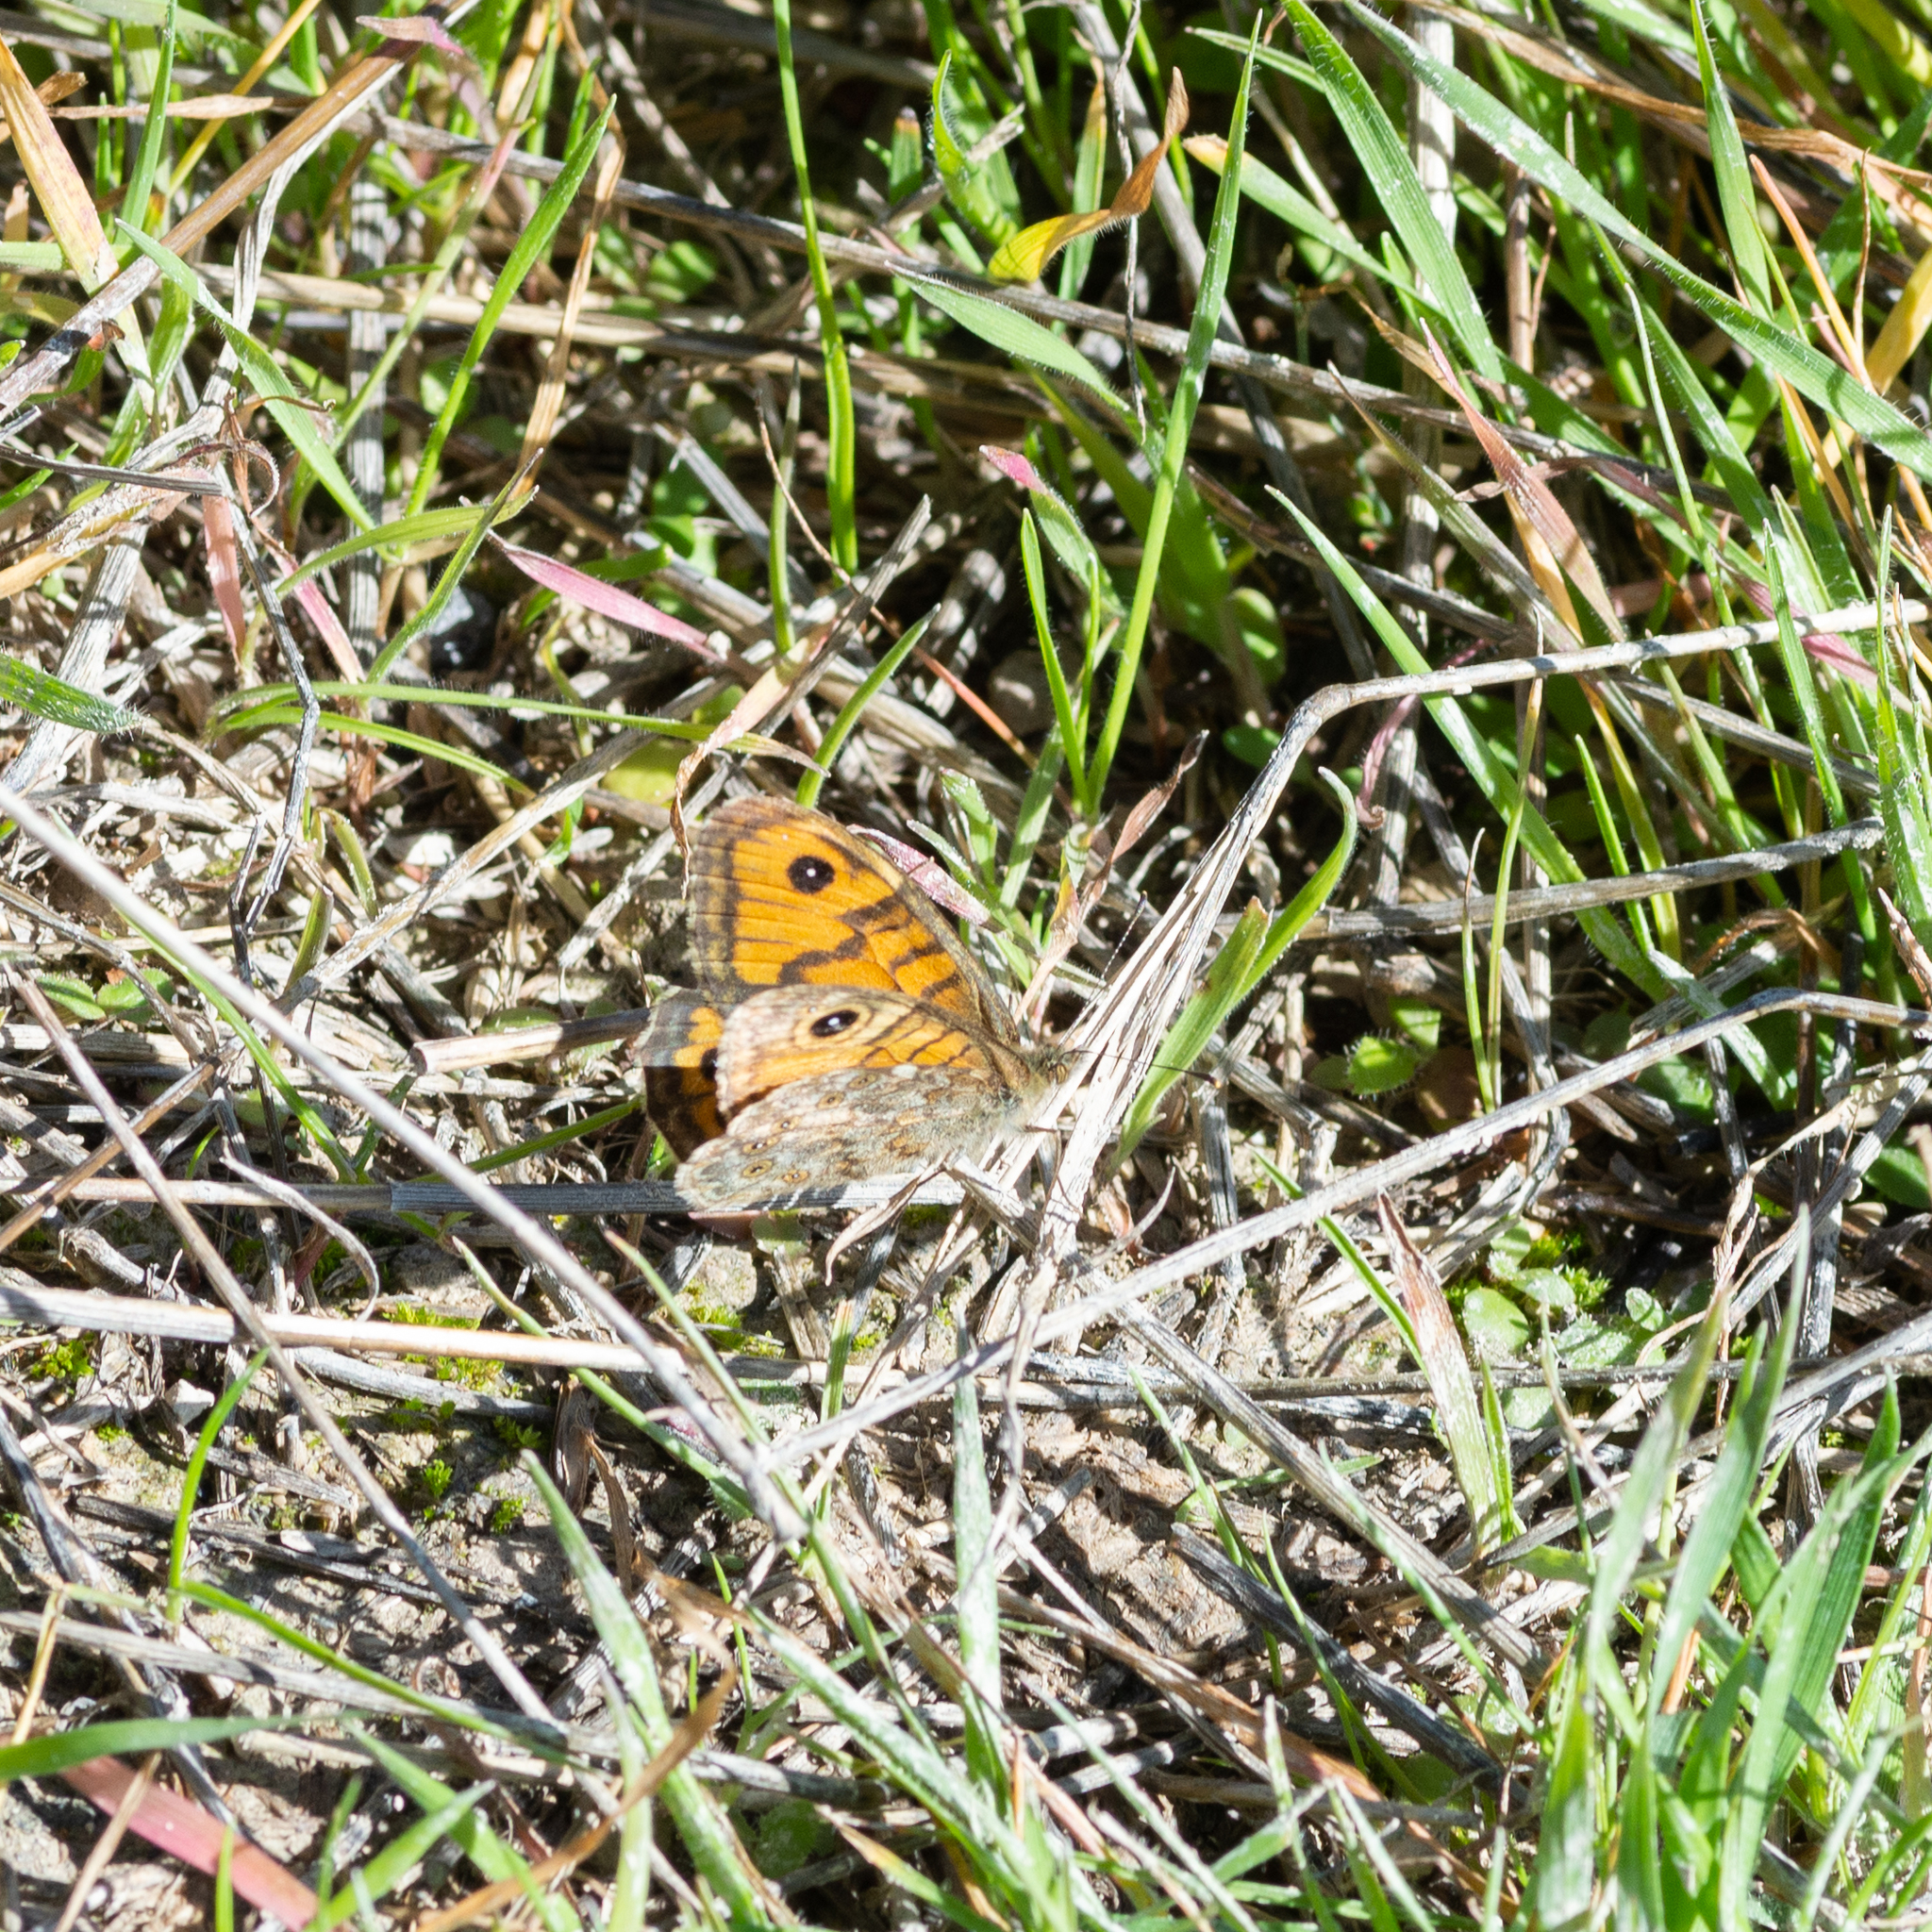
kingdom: Animalia
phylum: Arthropoda
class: Insecta
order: Lepidoptera
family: Nymphalidae
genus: Pararge
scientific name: Pararge Lasiommata megera
